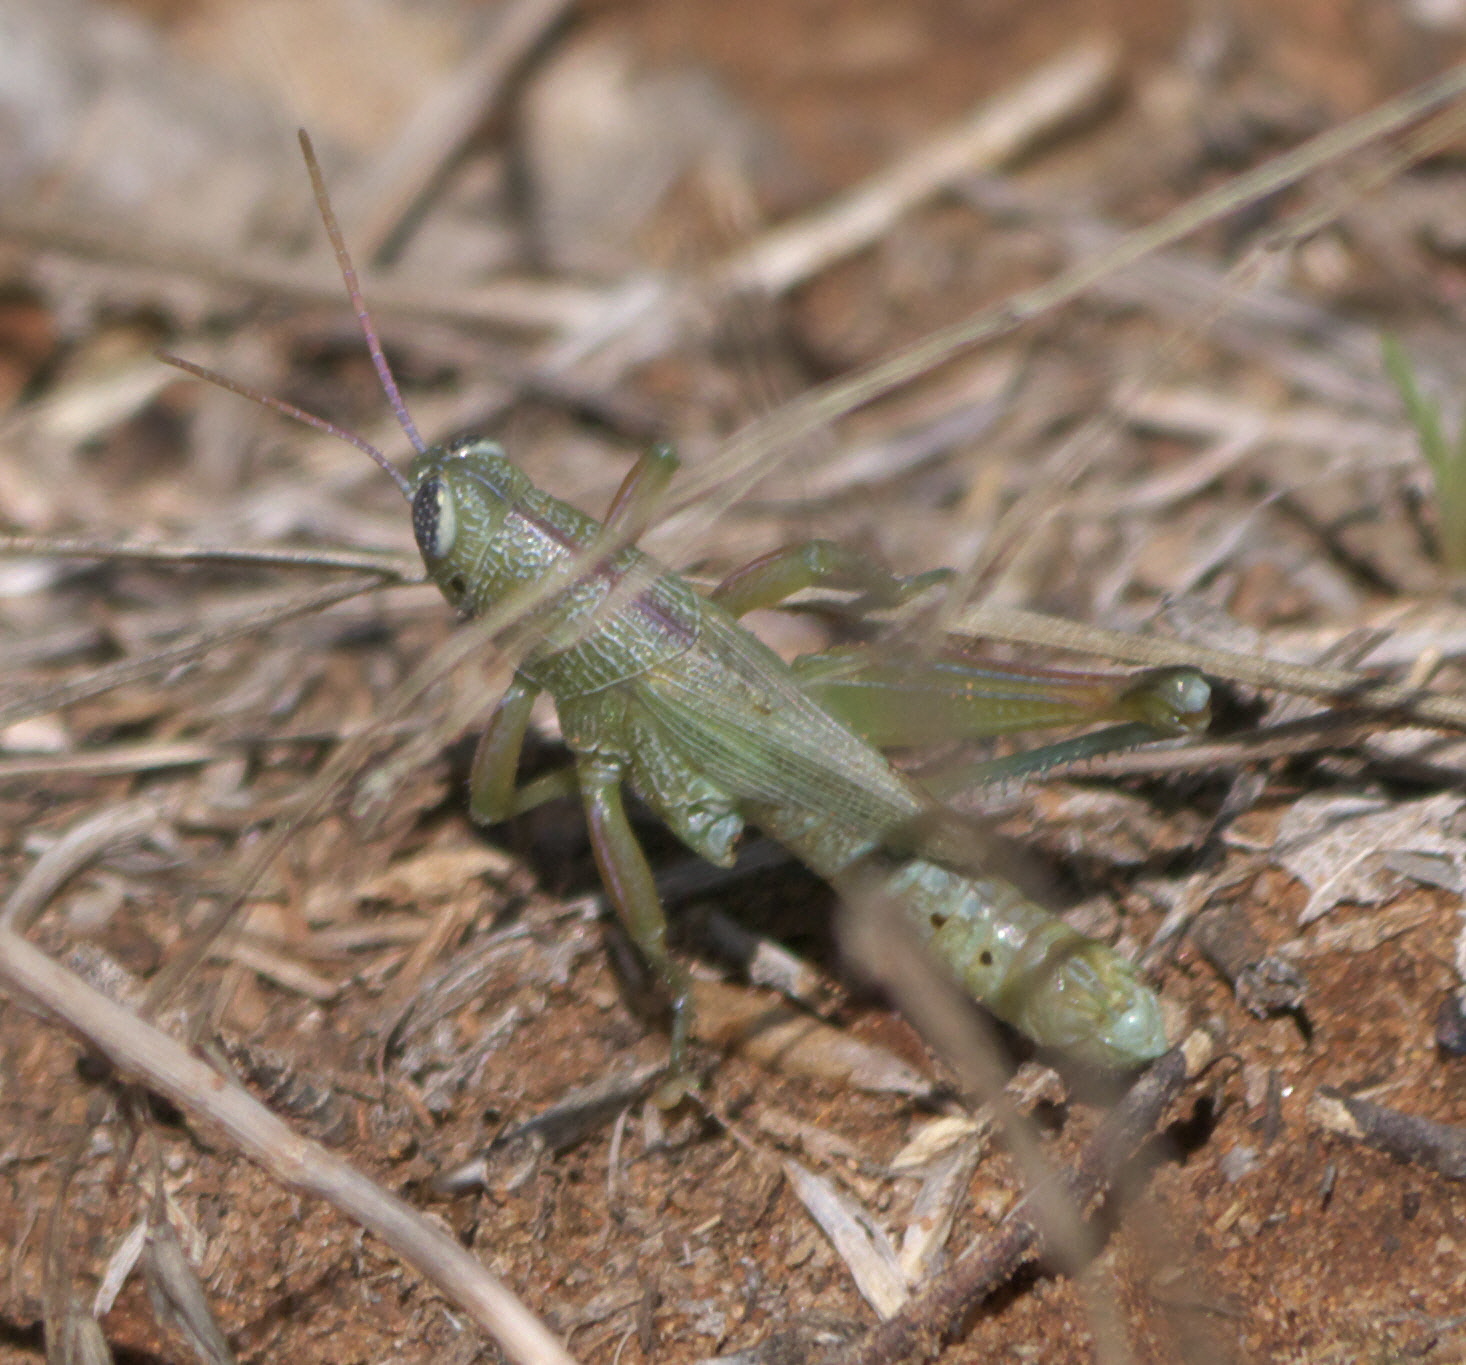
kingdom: Animalia
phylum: Arthropoda
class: Insecta
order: Orthoptera
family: Acrididae
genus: Hesperotettix
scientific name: Hesperotettix speciosus
